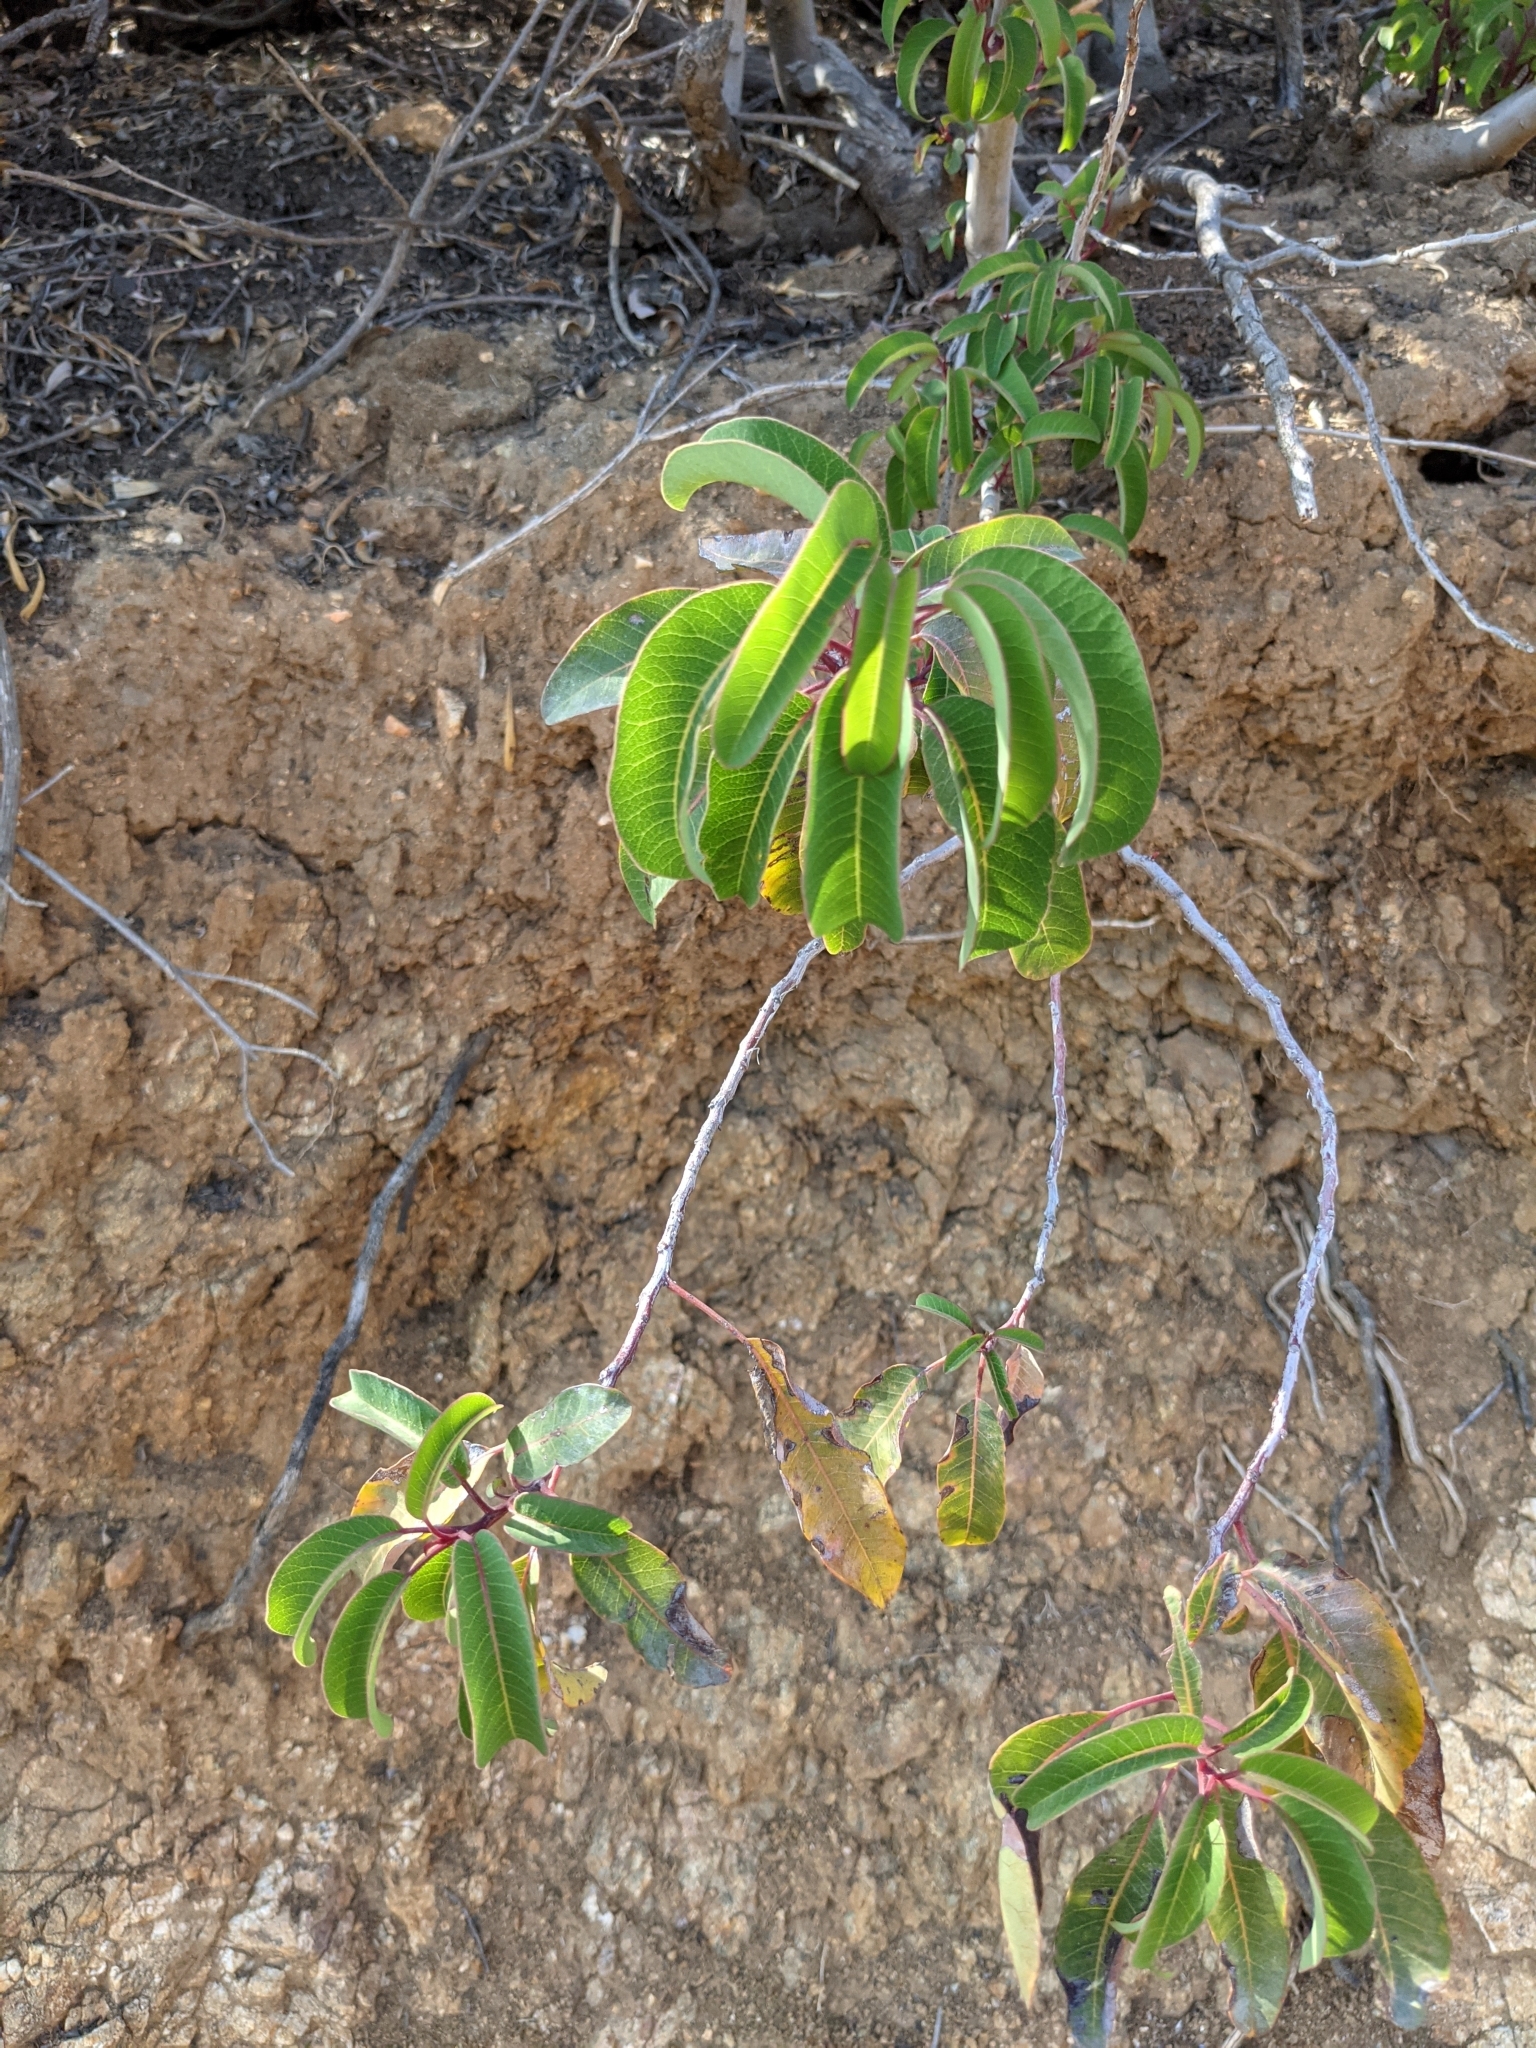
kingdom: Plantae
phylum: Tracheophyta
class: Magnoliopsida
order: Sapindales
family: Anacardiaceae
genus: Malosma
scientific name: Malosma laurina
